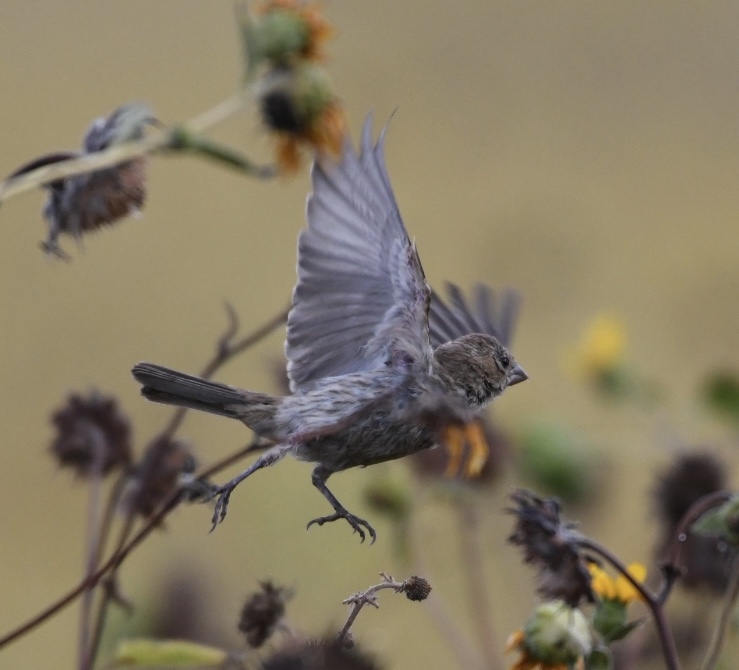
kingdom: Animalia
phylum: Chordata
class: Aves
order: Passeriformes
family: Fringillidae
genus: Haemorhous
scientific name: Haemorhous mexicanus
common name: House finch
